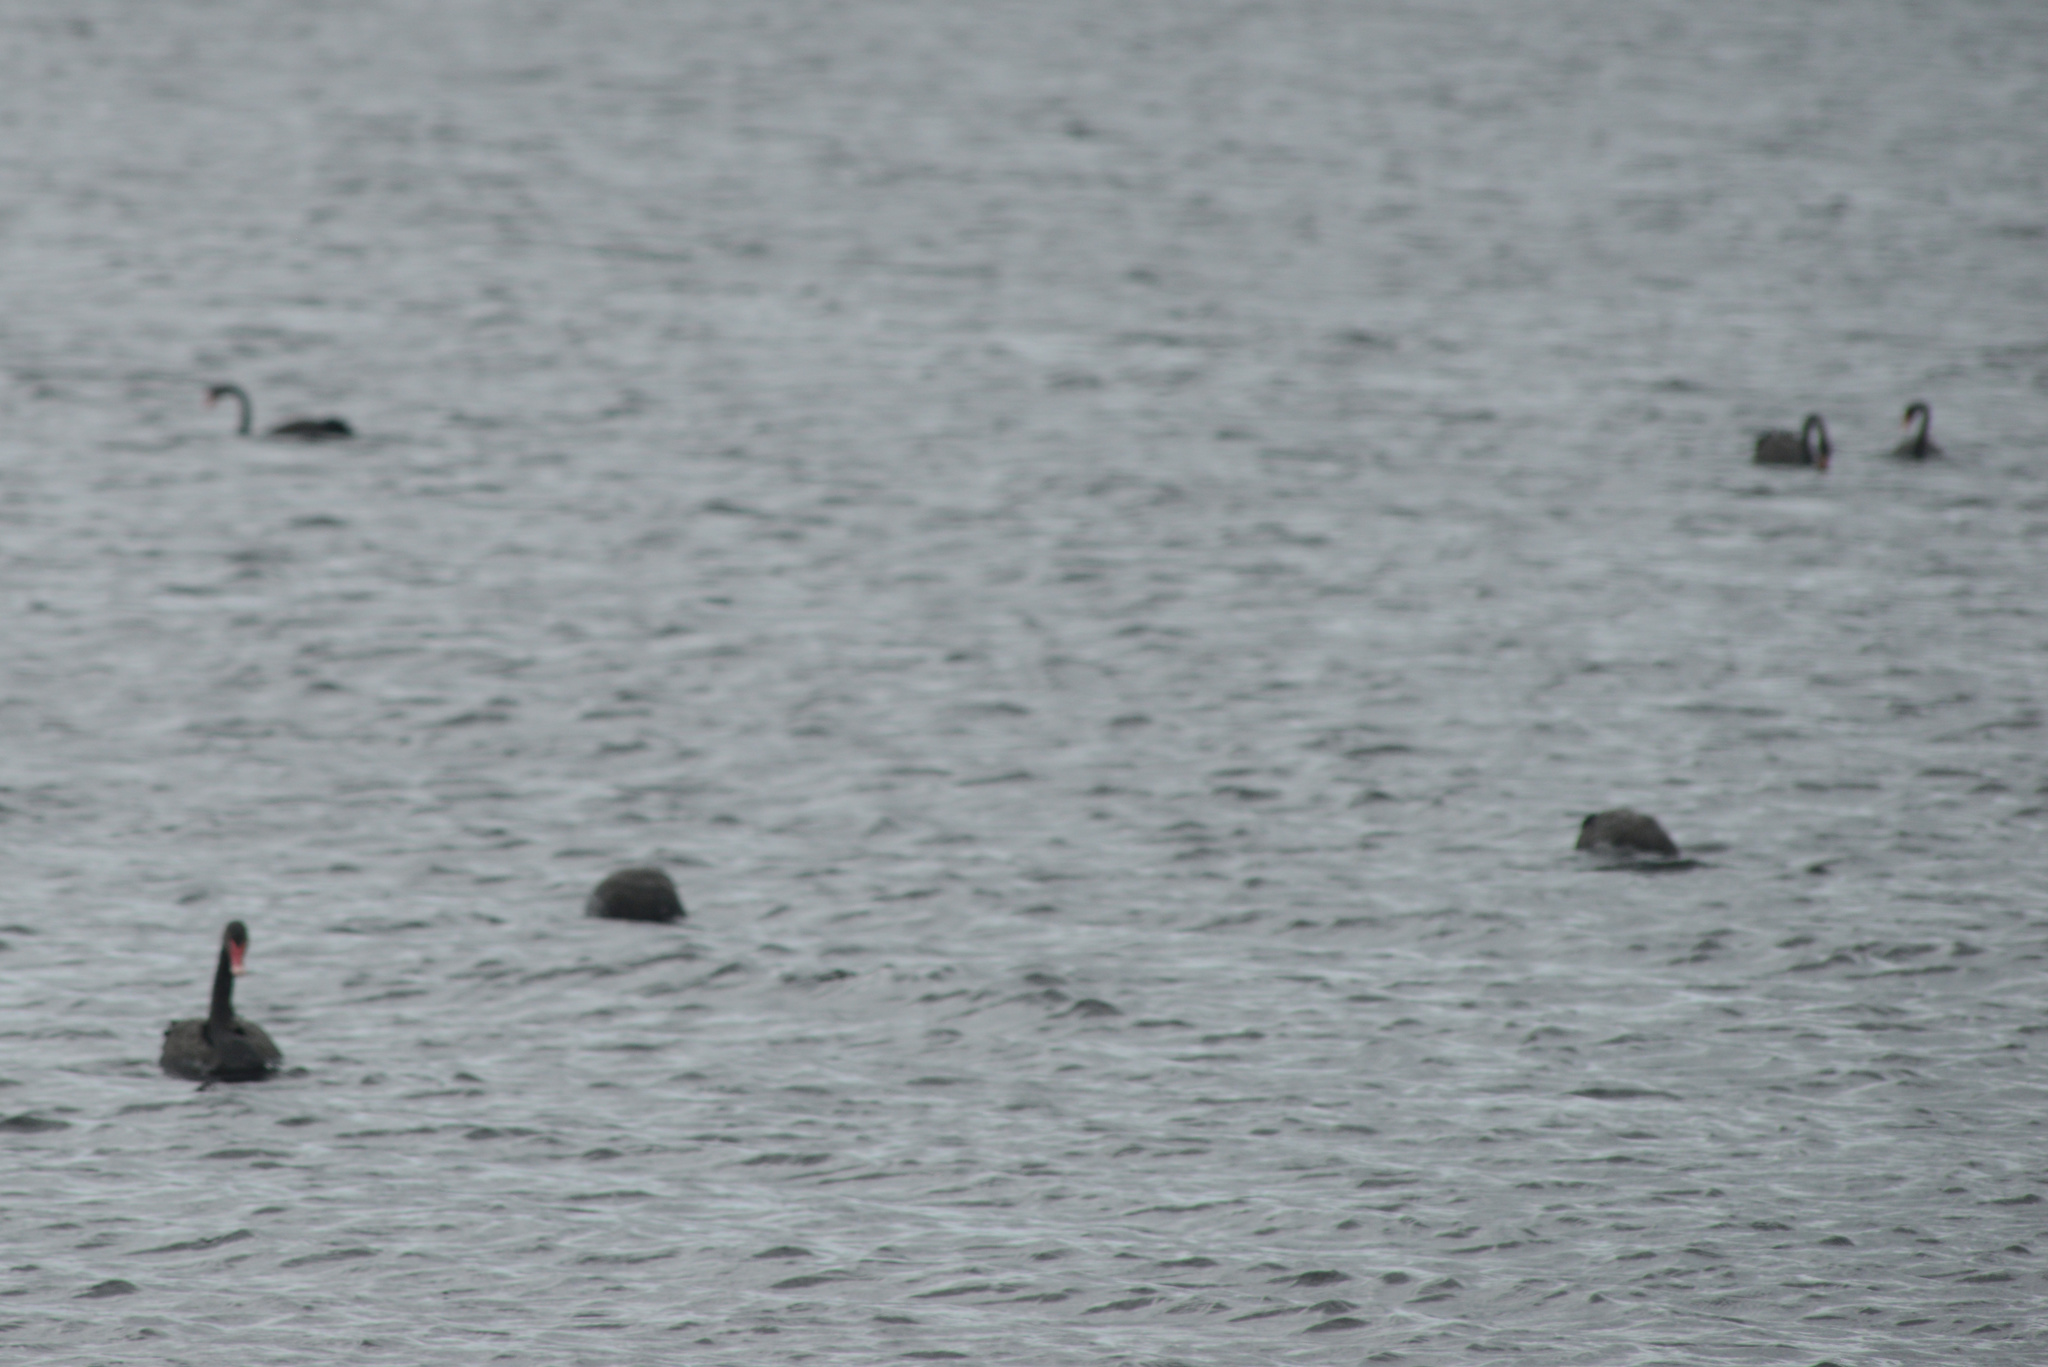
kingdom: Animalia
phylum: Chordata
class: Aves
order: Anseriformes
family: Anatidae
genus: Cygnus
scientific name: Cygnus atratus
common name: Black swan
